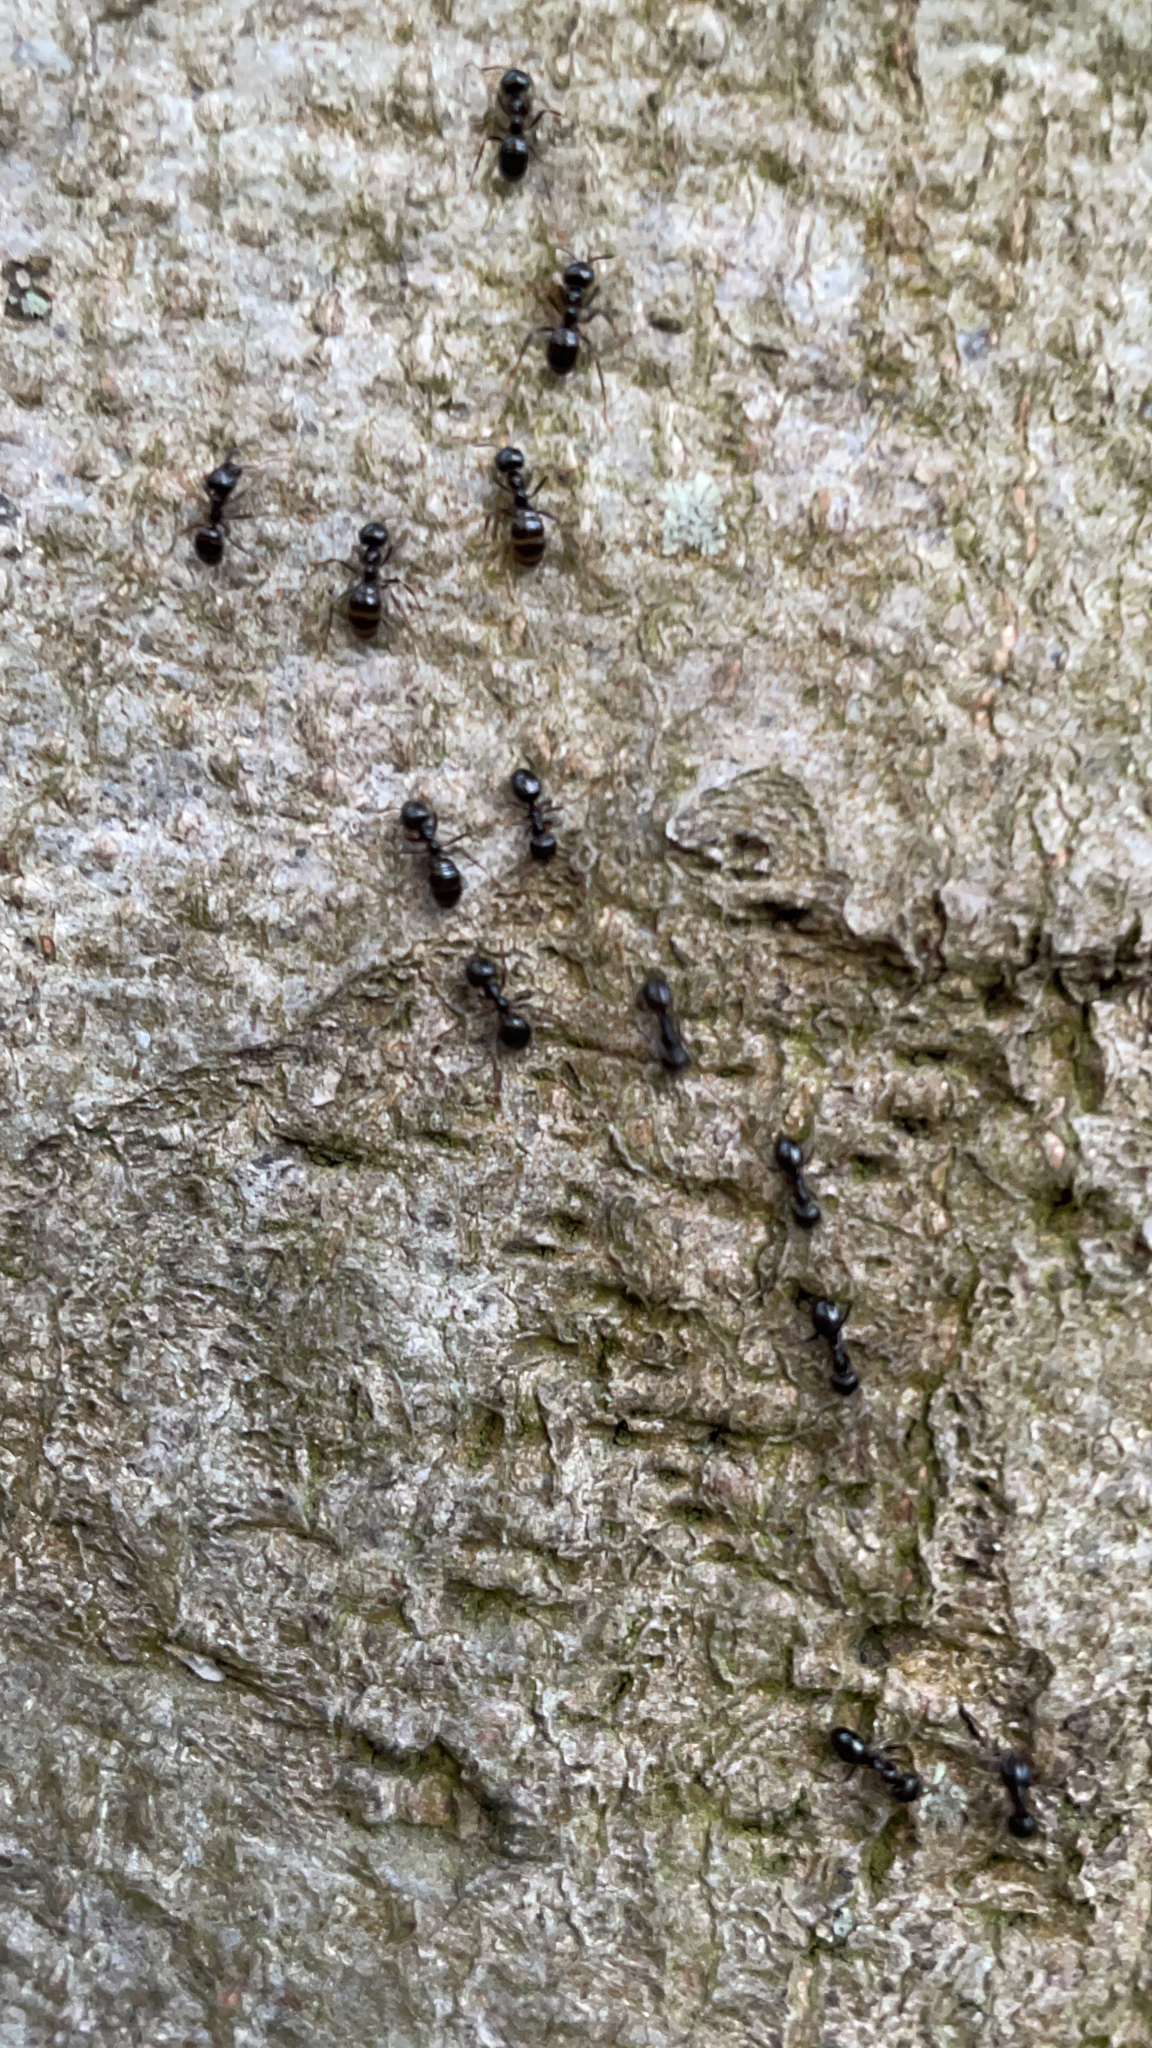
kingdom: Animalia
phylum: Arthropoda
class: Insecta
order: Hymenoptera
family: Formicidae
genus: Lasius
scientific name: Lasius fuliginosus
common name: Jet ant
